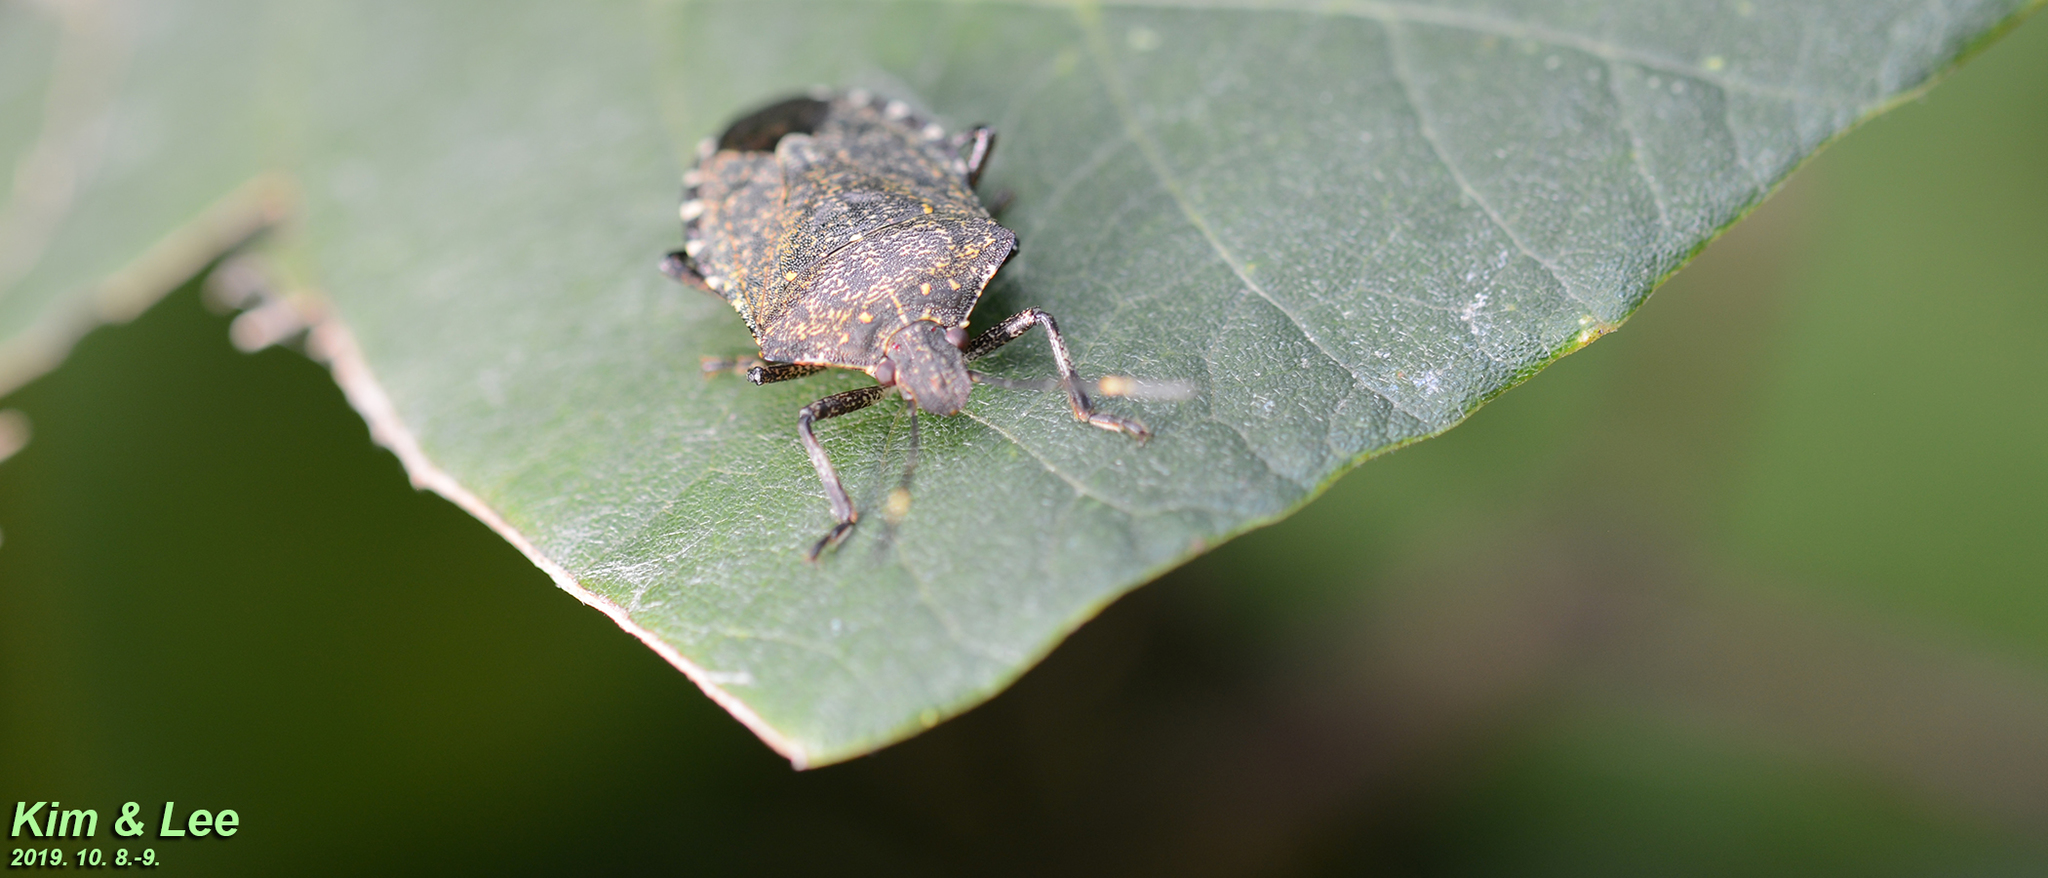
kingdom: Animalia
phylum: Arthropoda
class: Insecta
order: Hemiptera
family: Pentatomidae
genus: Halyomorpha
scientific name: Halyomorpha halys
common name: Brown marmorated stink bug
